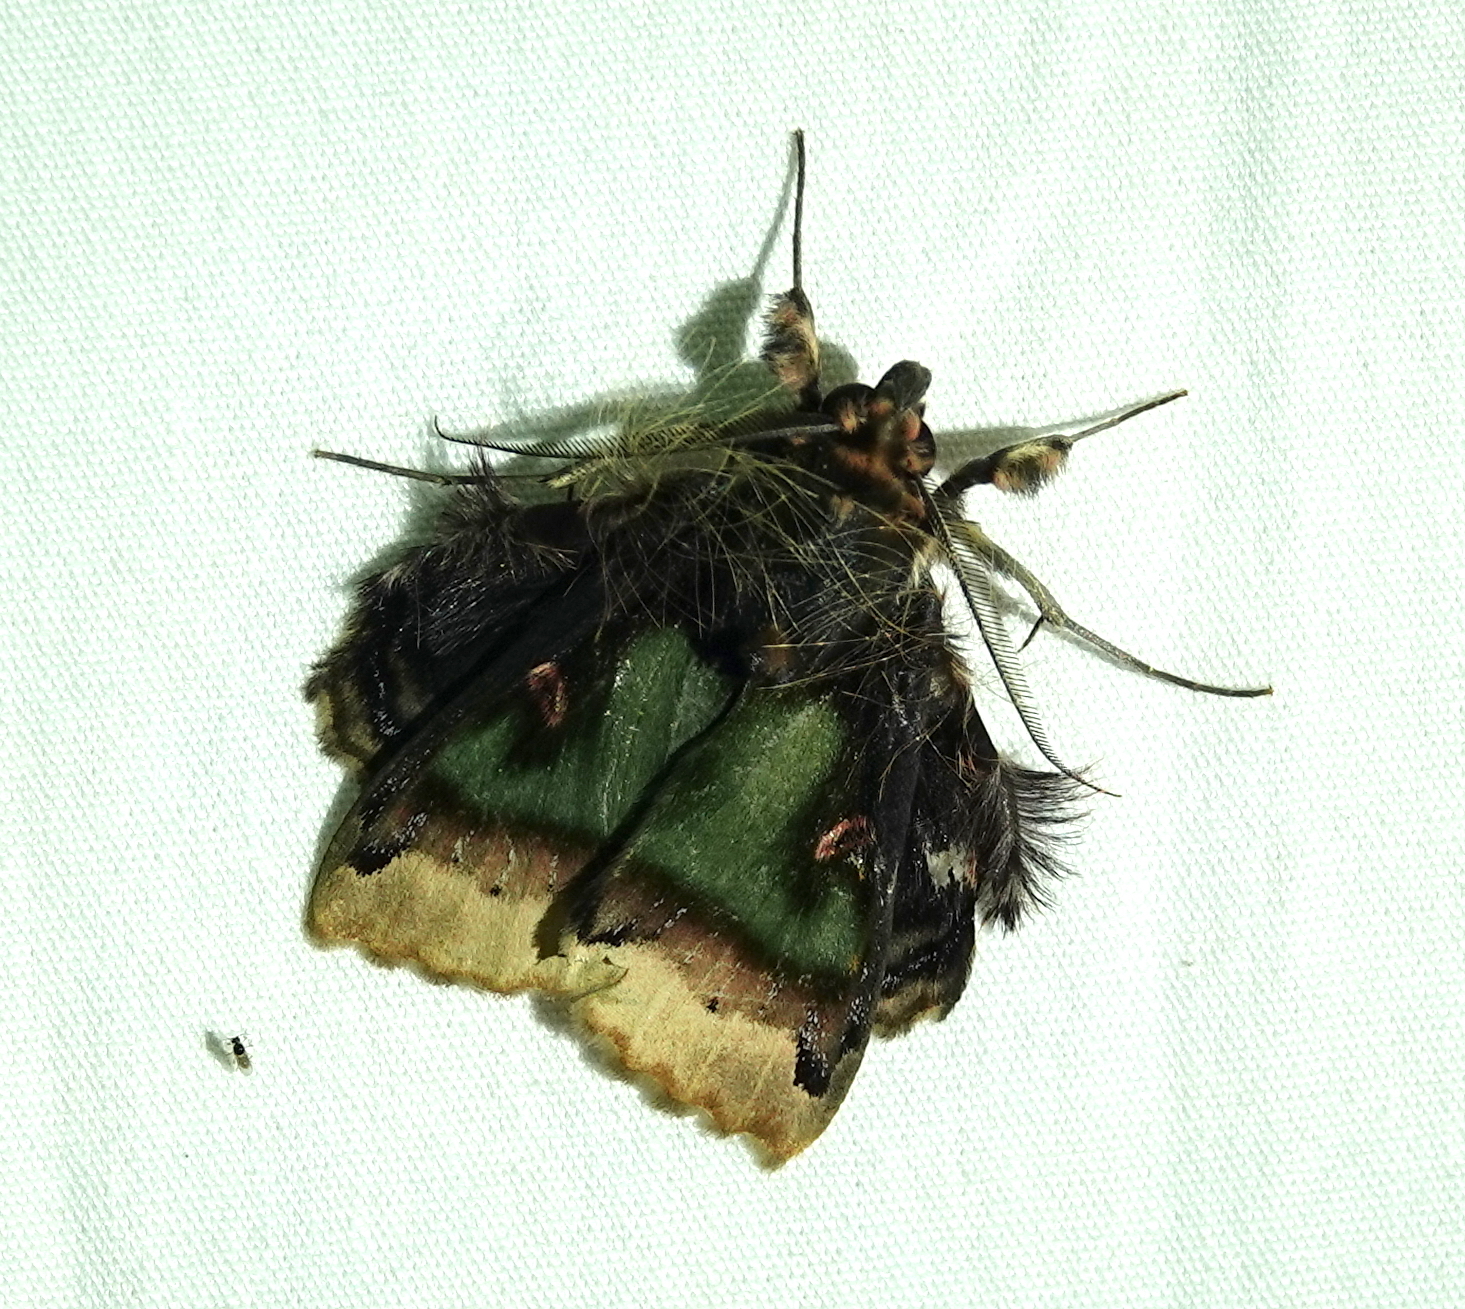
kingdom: Animalia
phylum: Arthropoda
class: Insecta
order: Lepidoptera
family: Erebidae
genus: Ceroctena
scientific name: Ceroctena amynta
